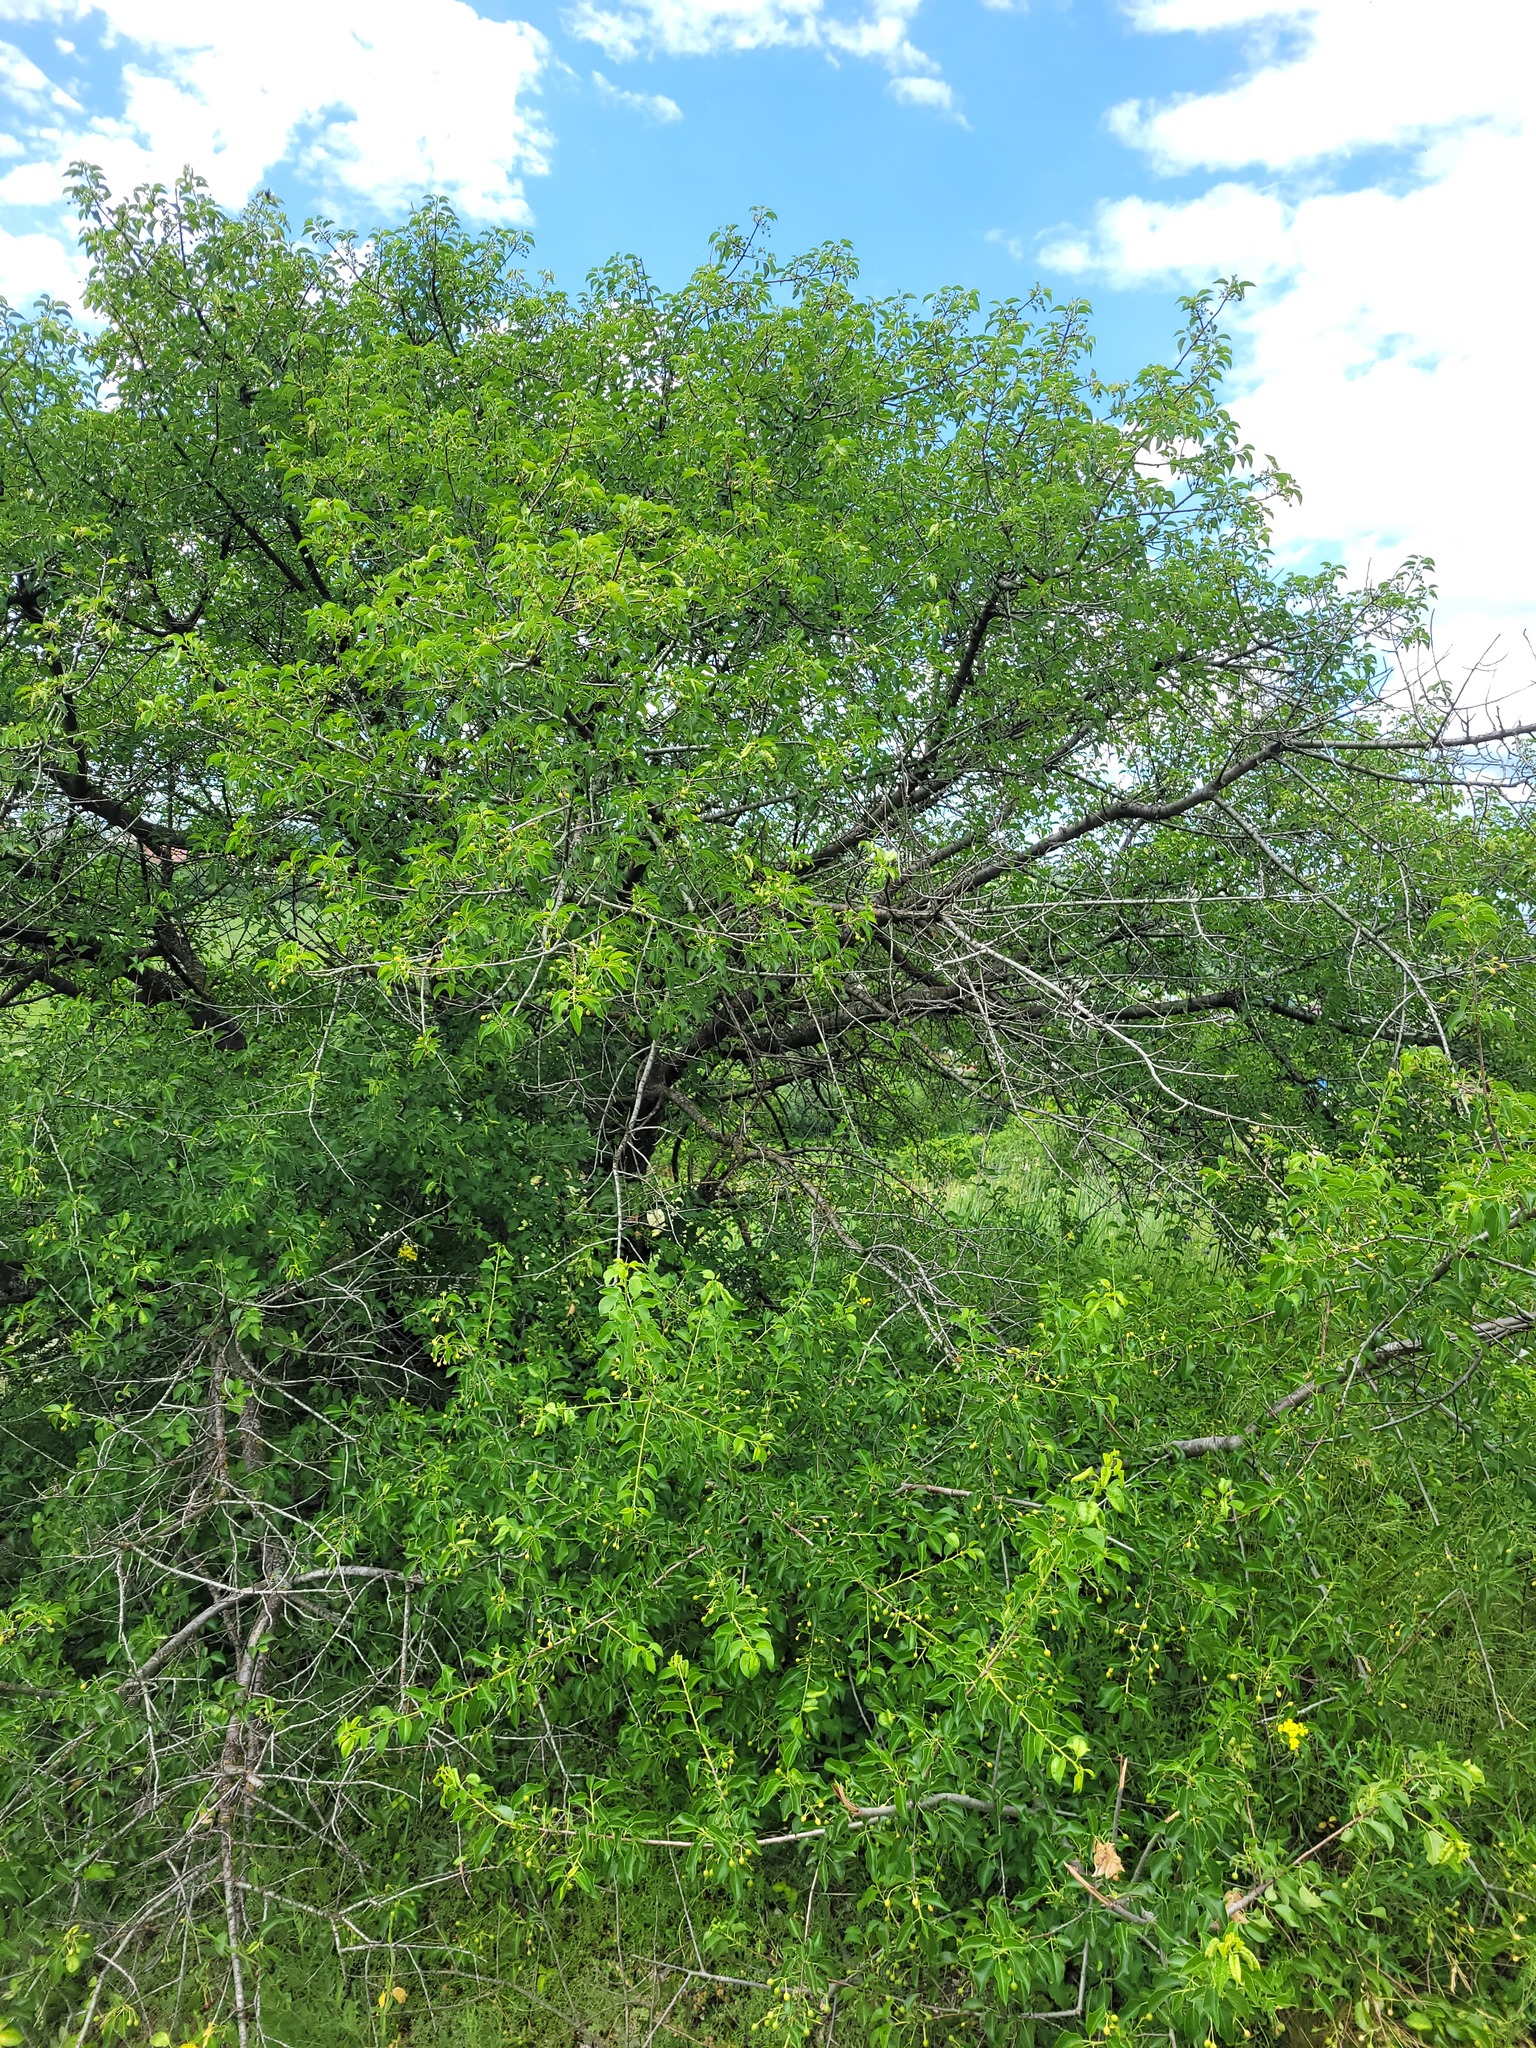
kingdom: Plantae
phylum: Tracheophyta
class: Magnoliopsida
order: Rosales
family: Rosaceae
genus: Prunus
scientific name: Prunus mahaleb
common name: Mahaleb cherry
